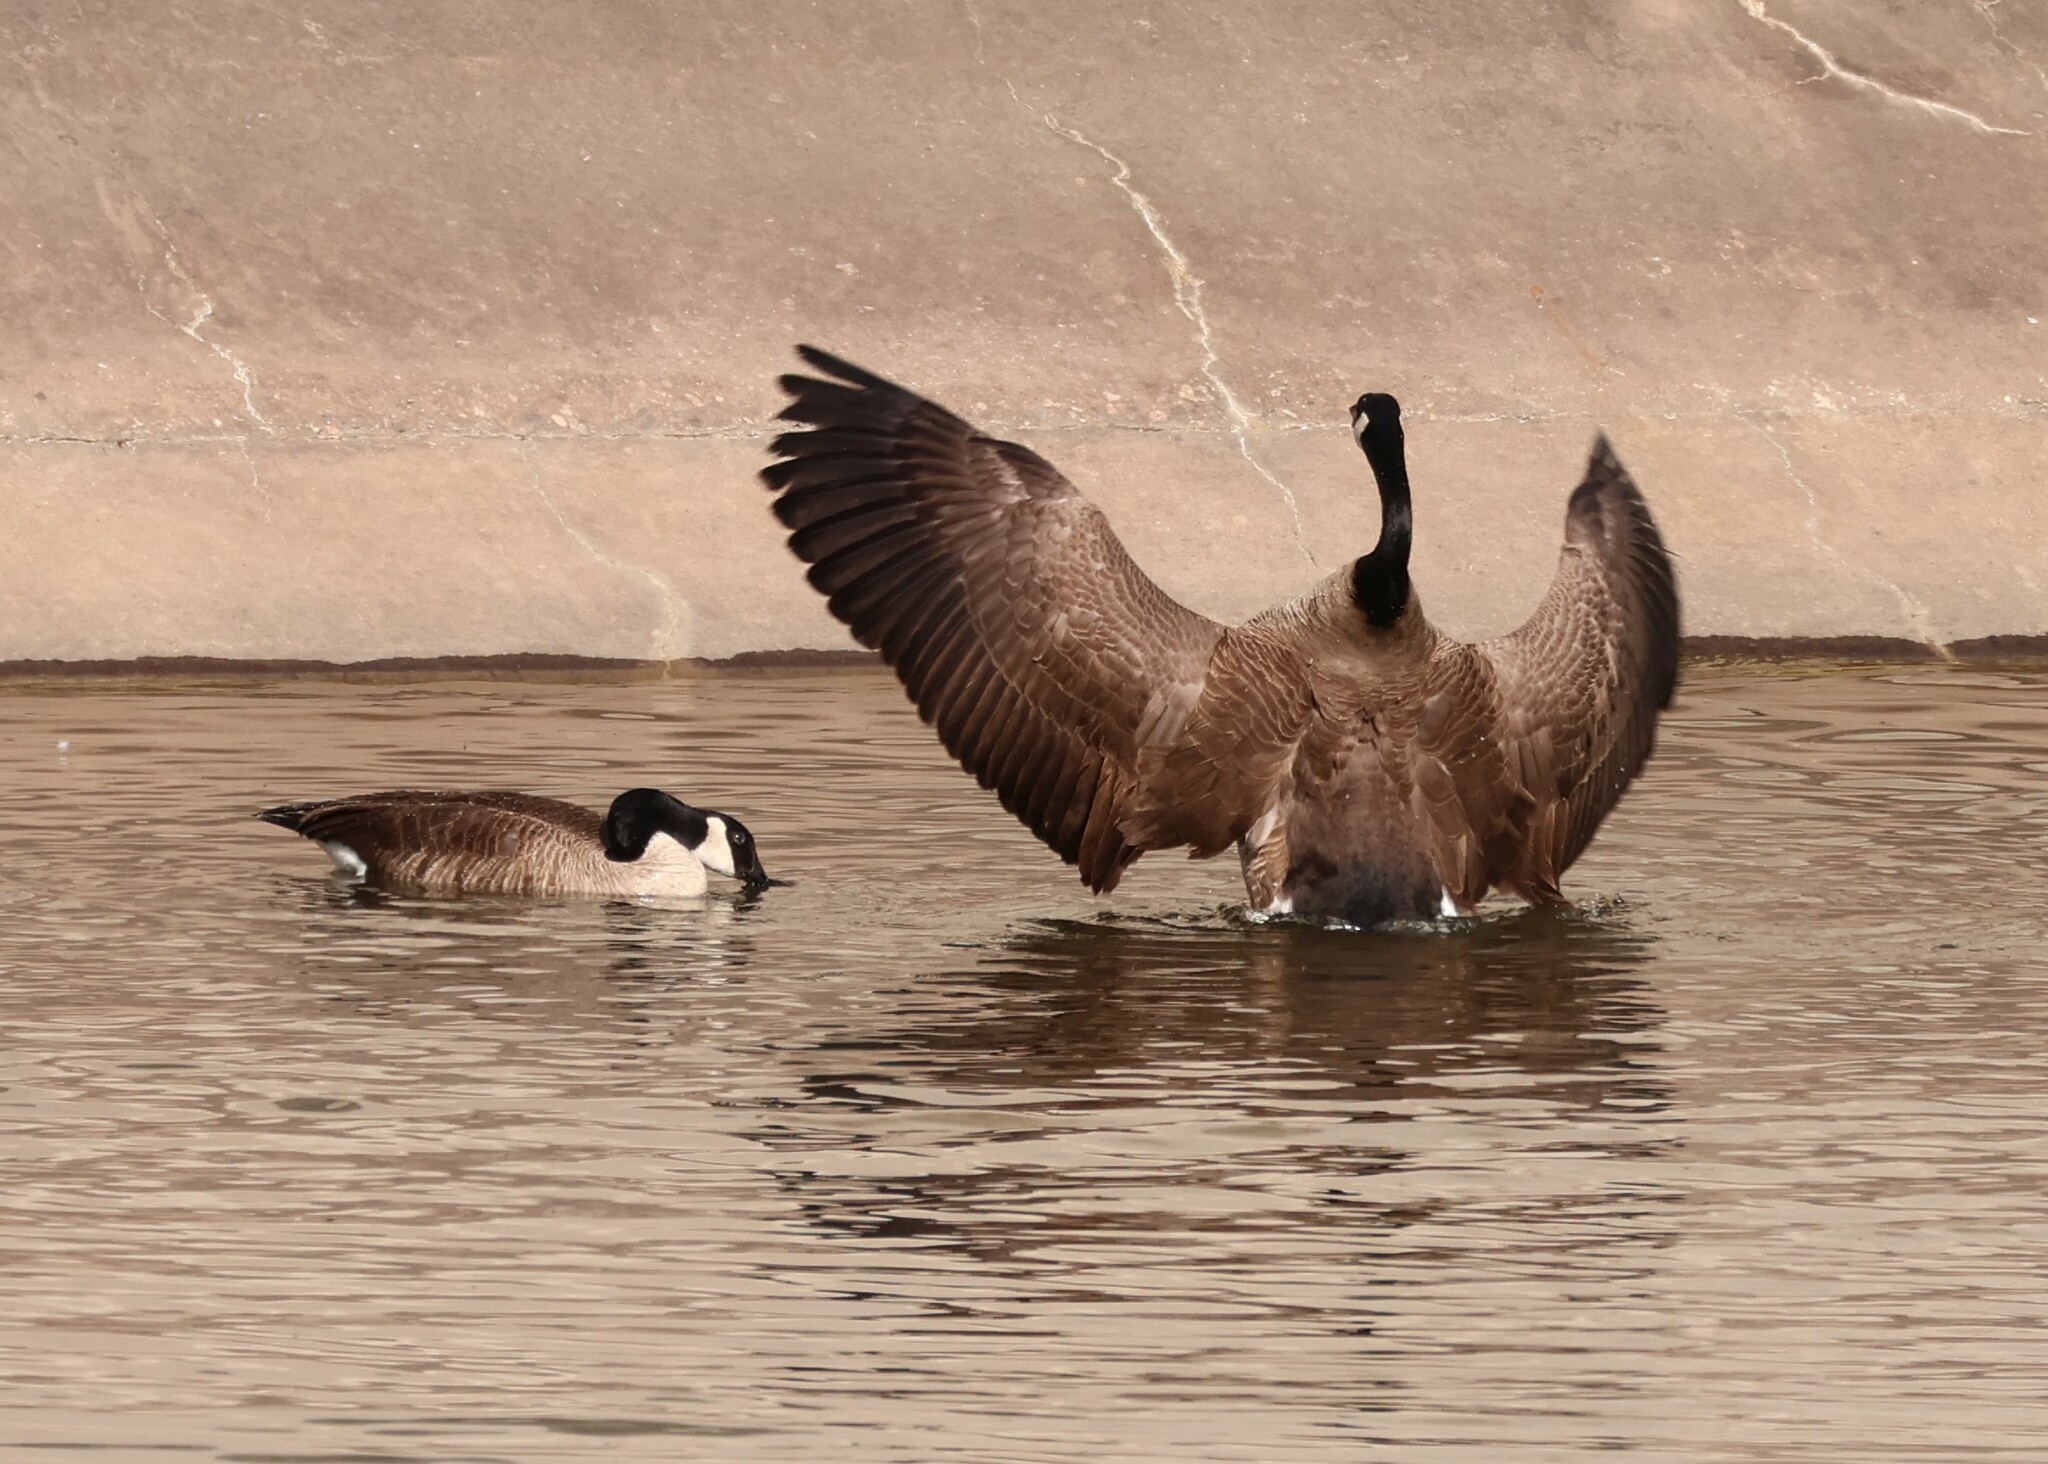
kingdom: Animalia
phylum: Chordata
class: Aves
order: Anseriformes
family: Anatidae
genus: Branta
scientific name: Branta canadensis
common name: Canada goose
